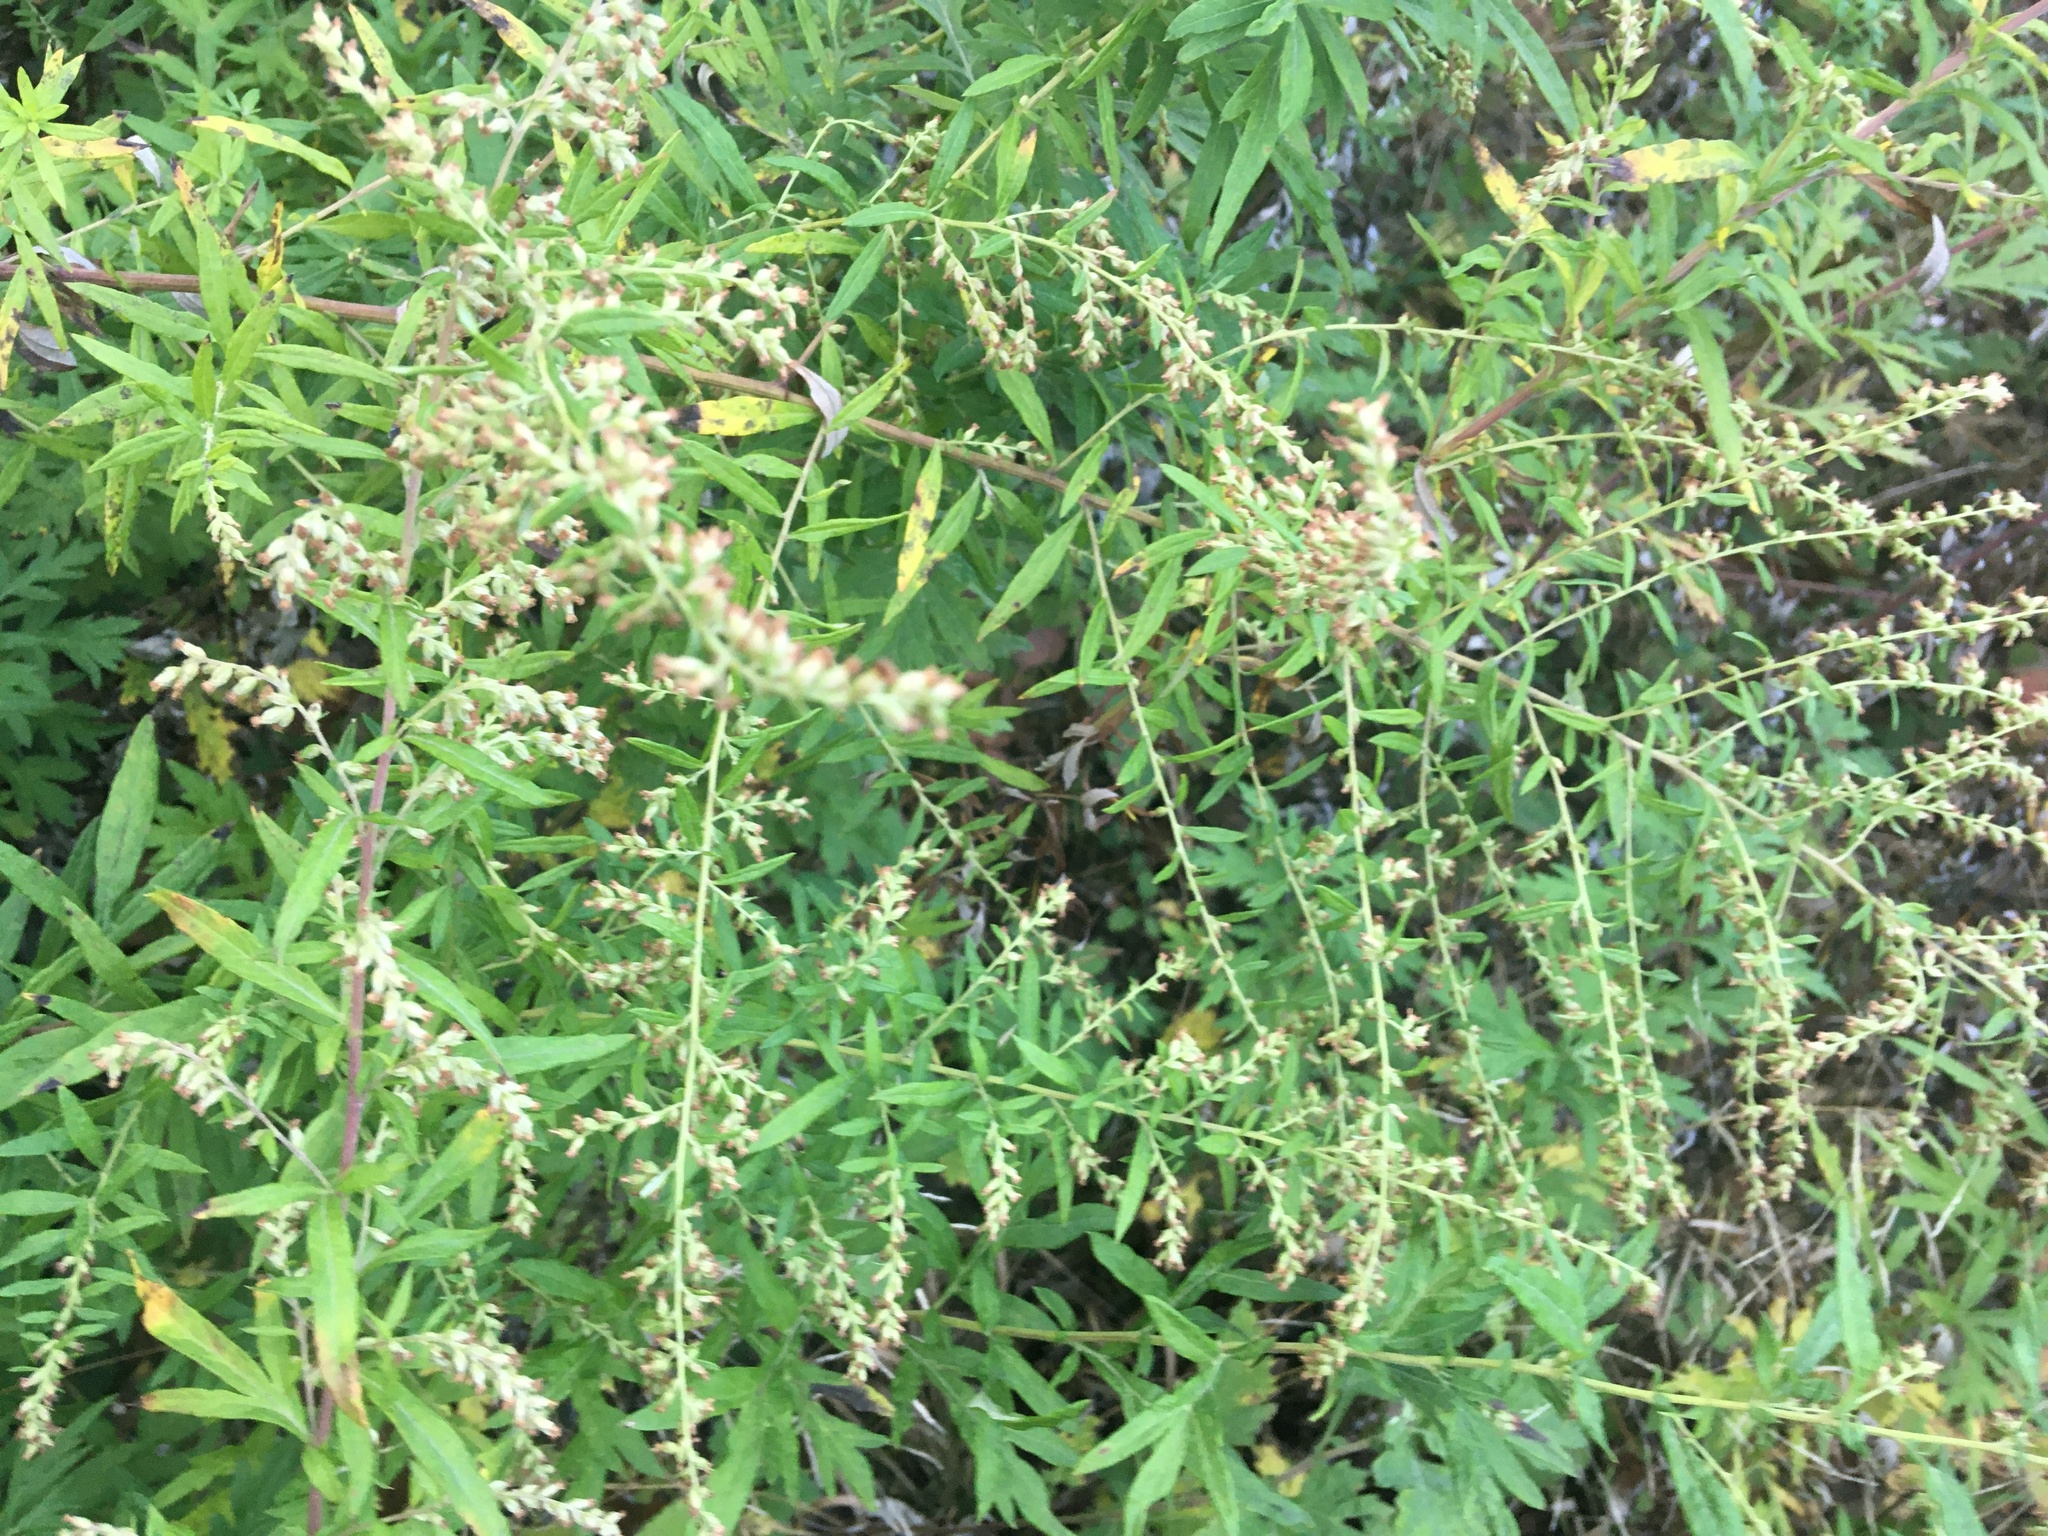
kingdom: Plantae
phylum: Tracheophyta
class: Magnoliopsida
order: Asterales
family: Asteraceae
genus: Artemisia
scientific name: Artemisia vulgaris
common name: Mugwort
